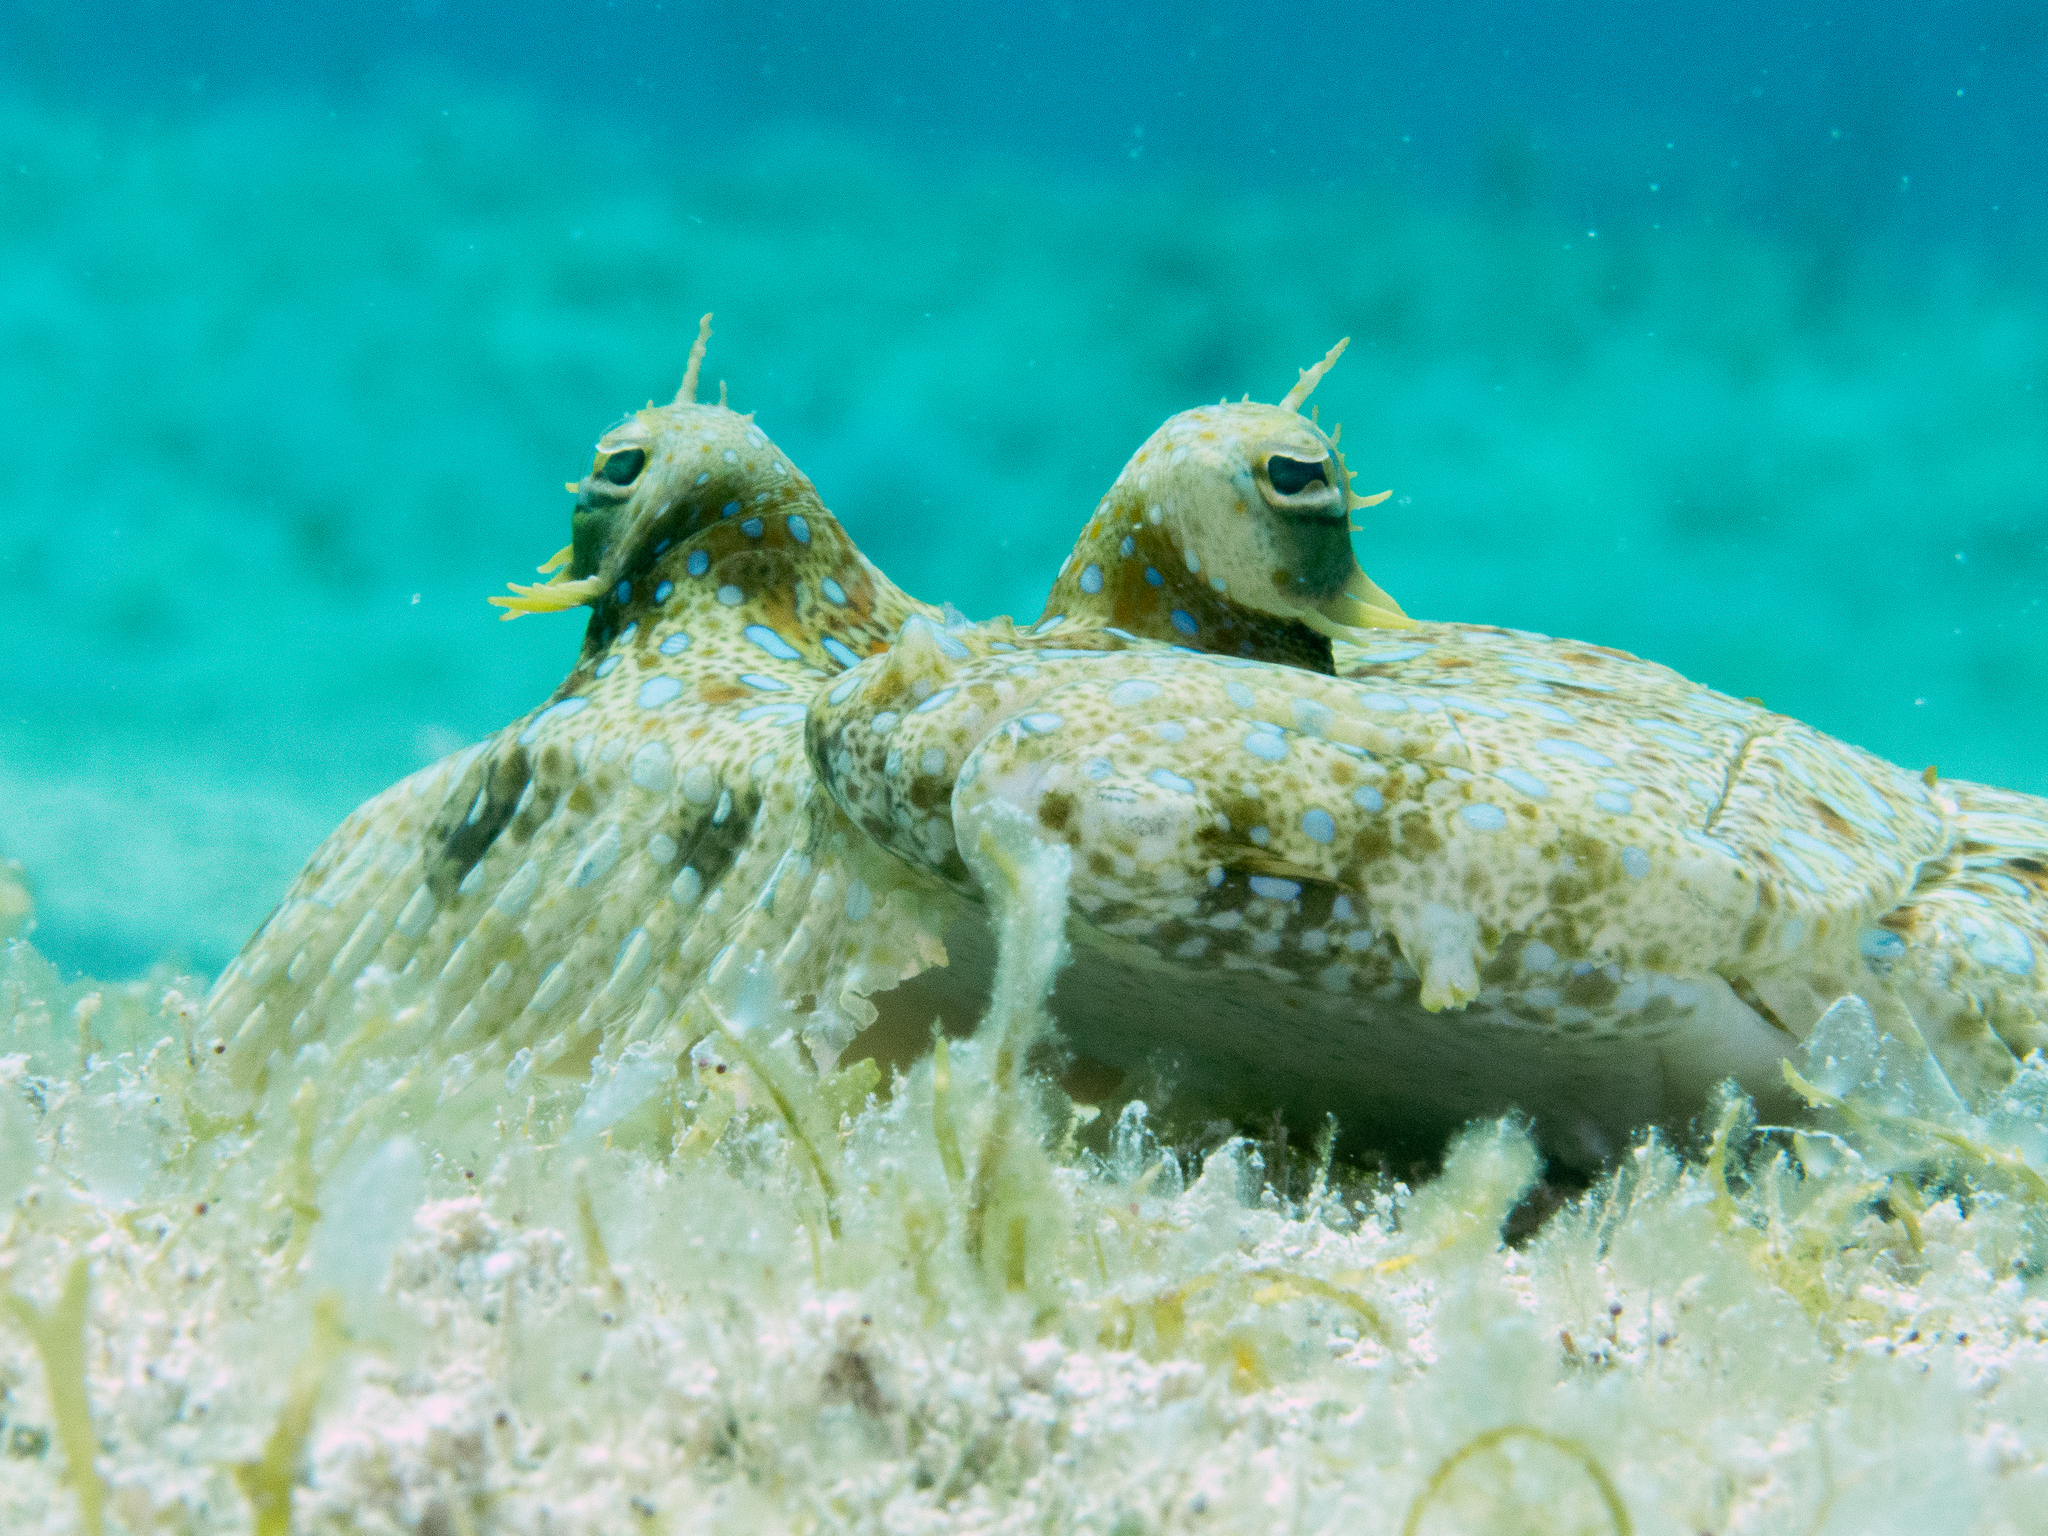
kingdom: Animalia
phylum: Chordata
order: Pleuronectiformes
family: Bothidae
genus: Bothus
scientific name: Bothus lunatus
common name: Peacock flounder
